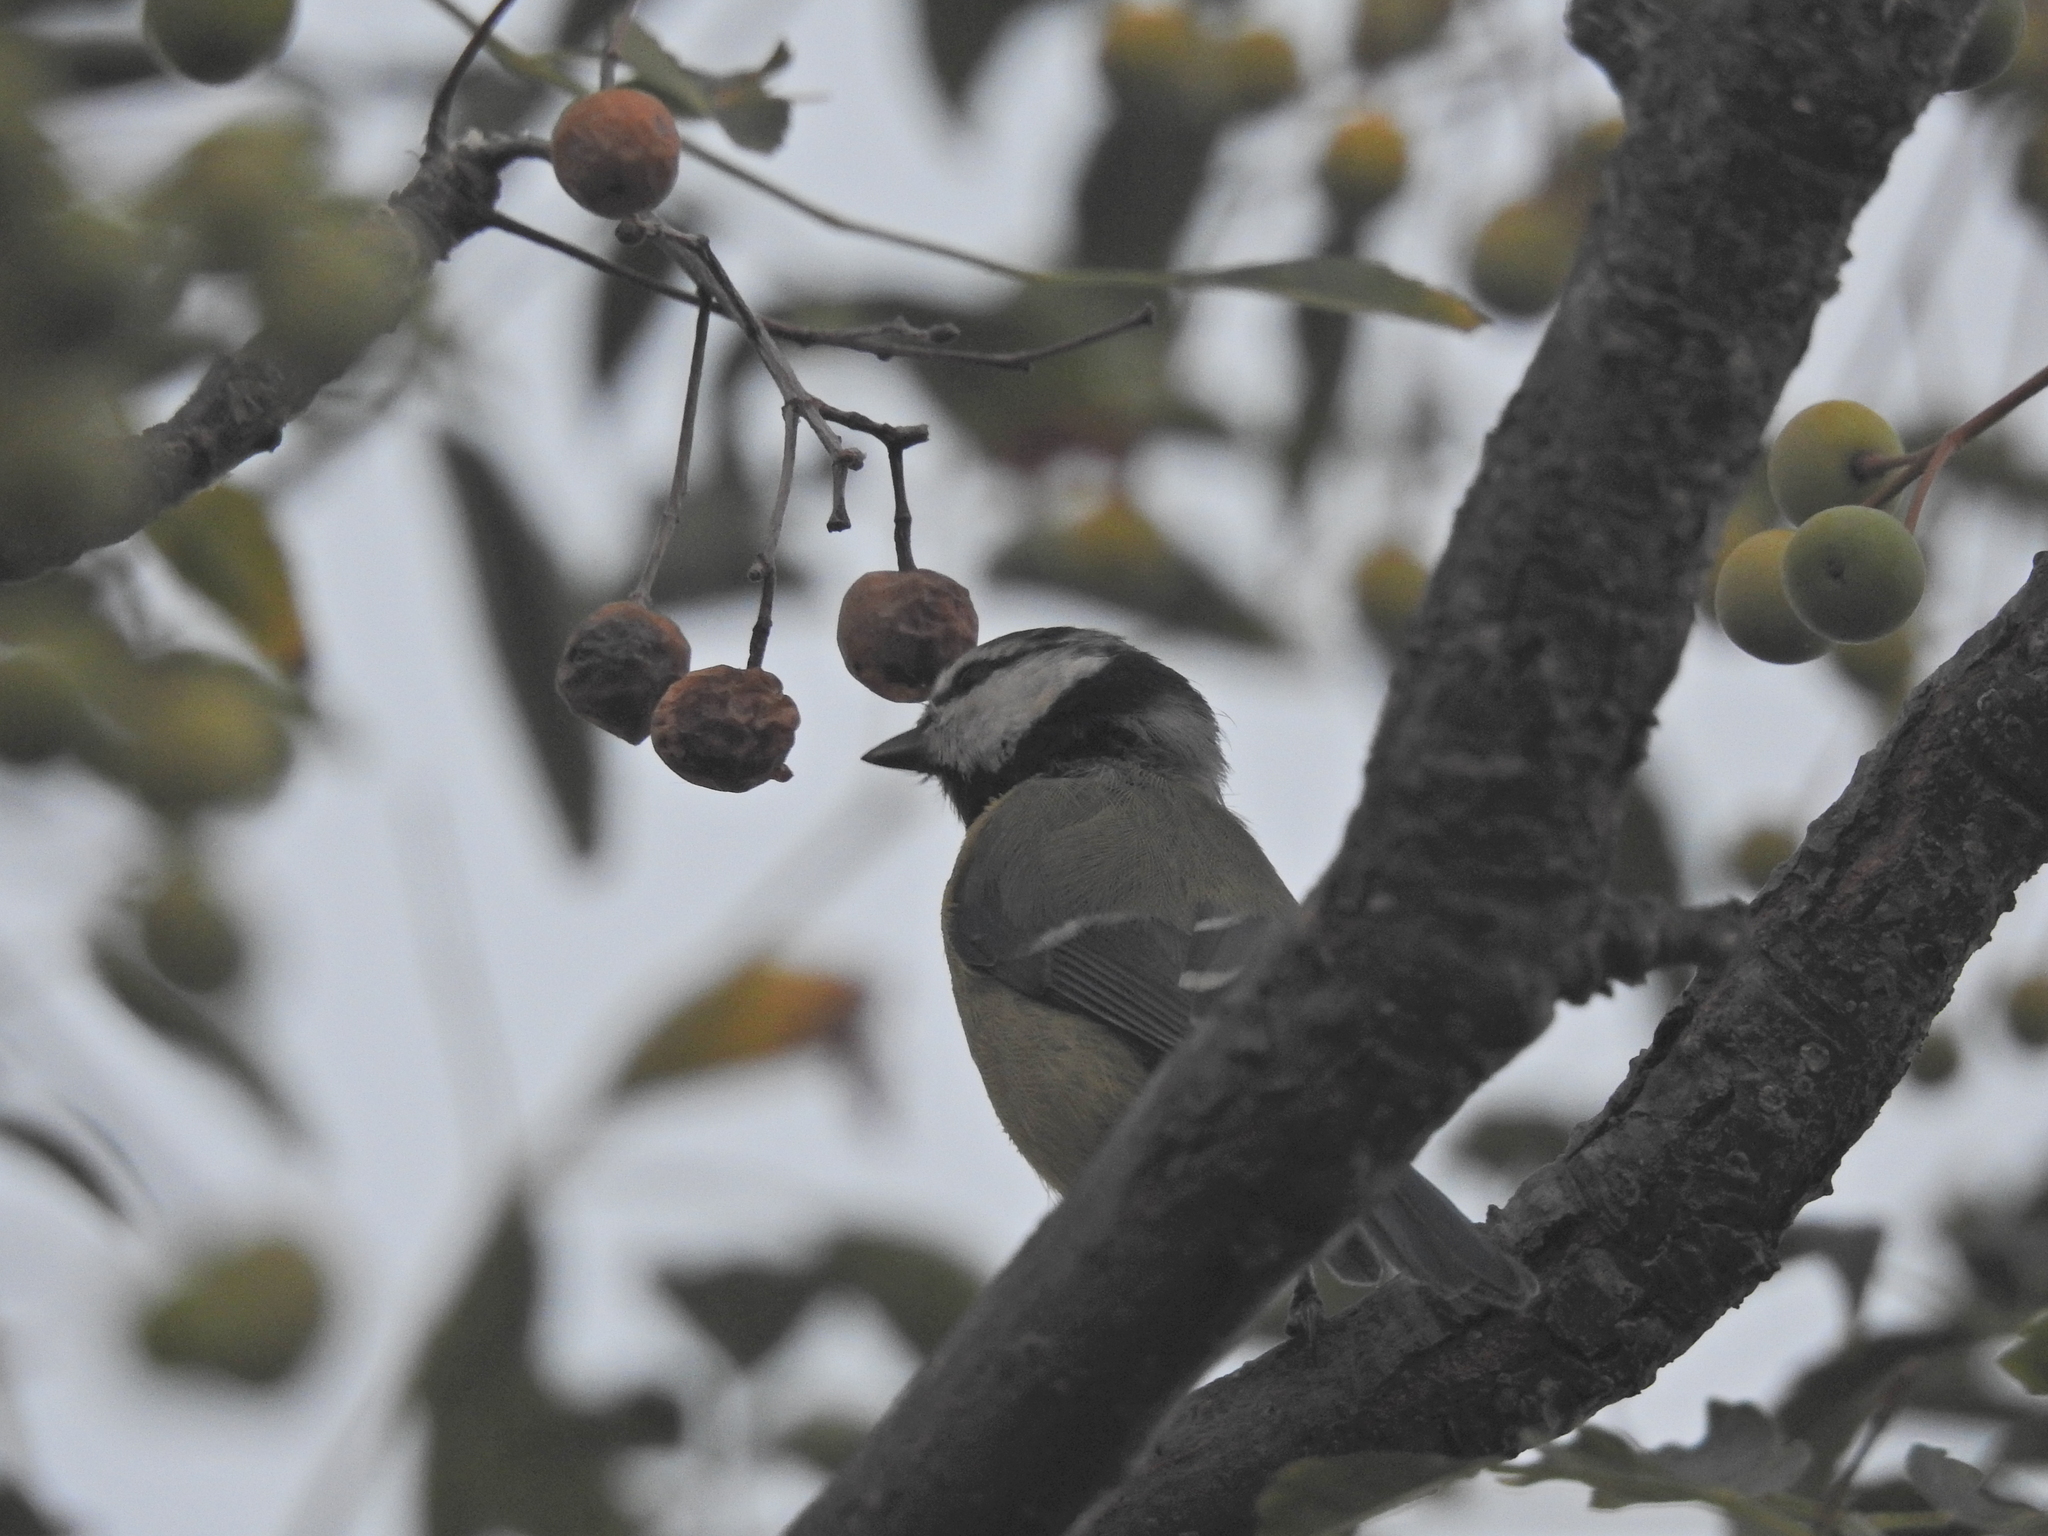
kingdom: Animalia
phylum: Chordata
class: Aves
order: Passeriformes
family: Paridae
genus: Cyanistes
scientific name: Cyanistes caeruleus
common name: Eurasian blue tit
